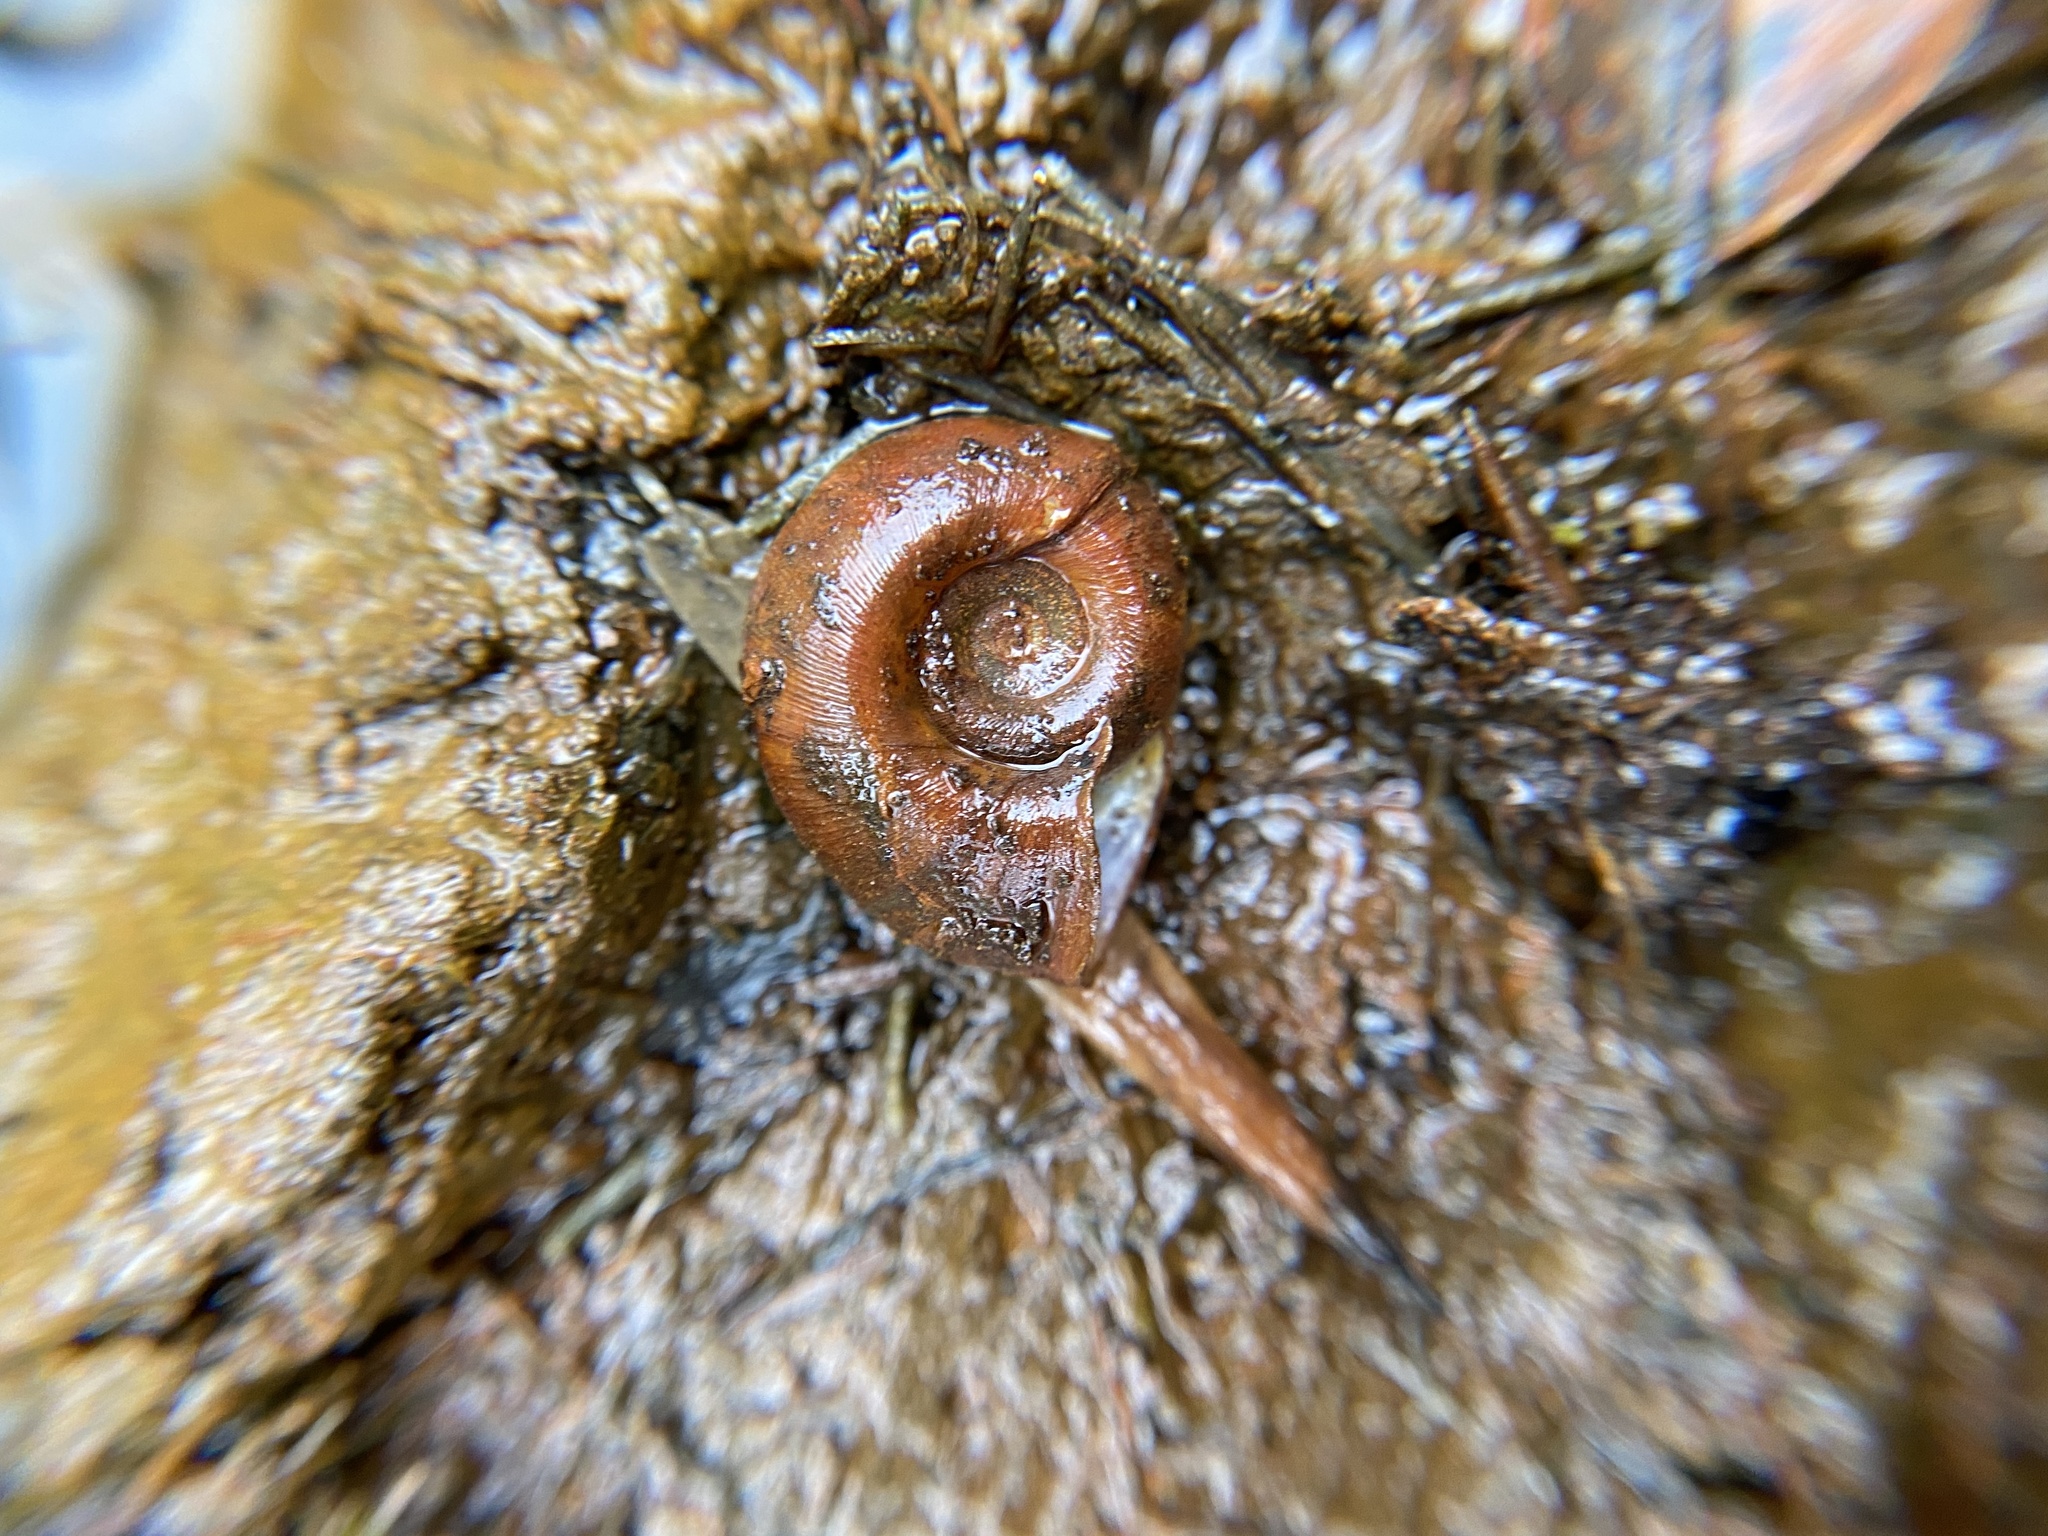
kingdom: Animalia
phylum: Mollusca
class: Gastropoda
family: Planorbidae
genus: Planorbella
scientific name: Planorbella trivolvis
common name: Marsh rams-horn
